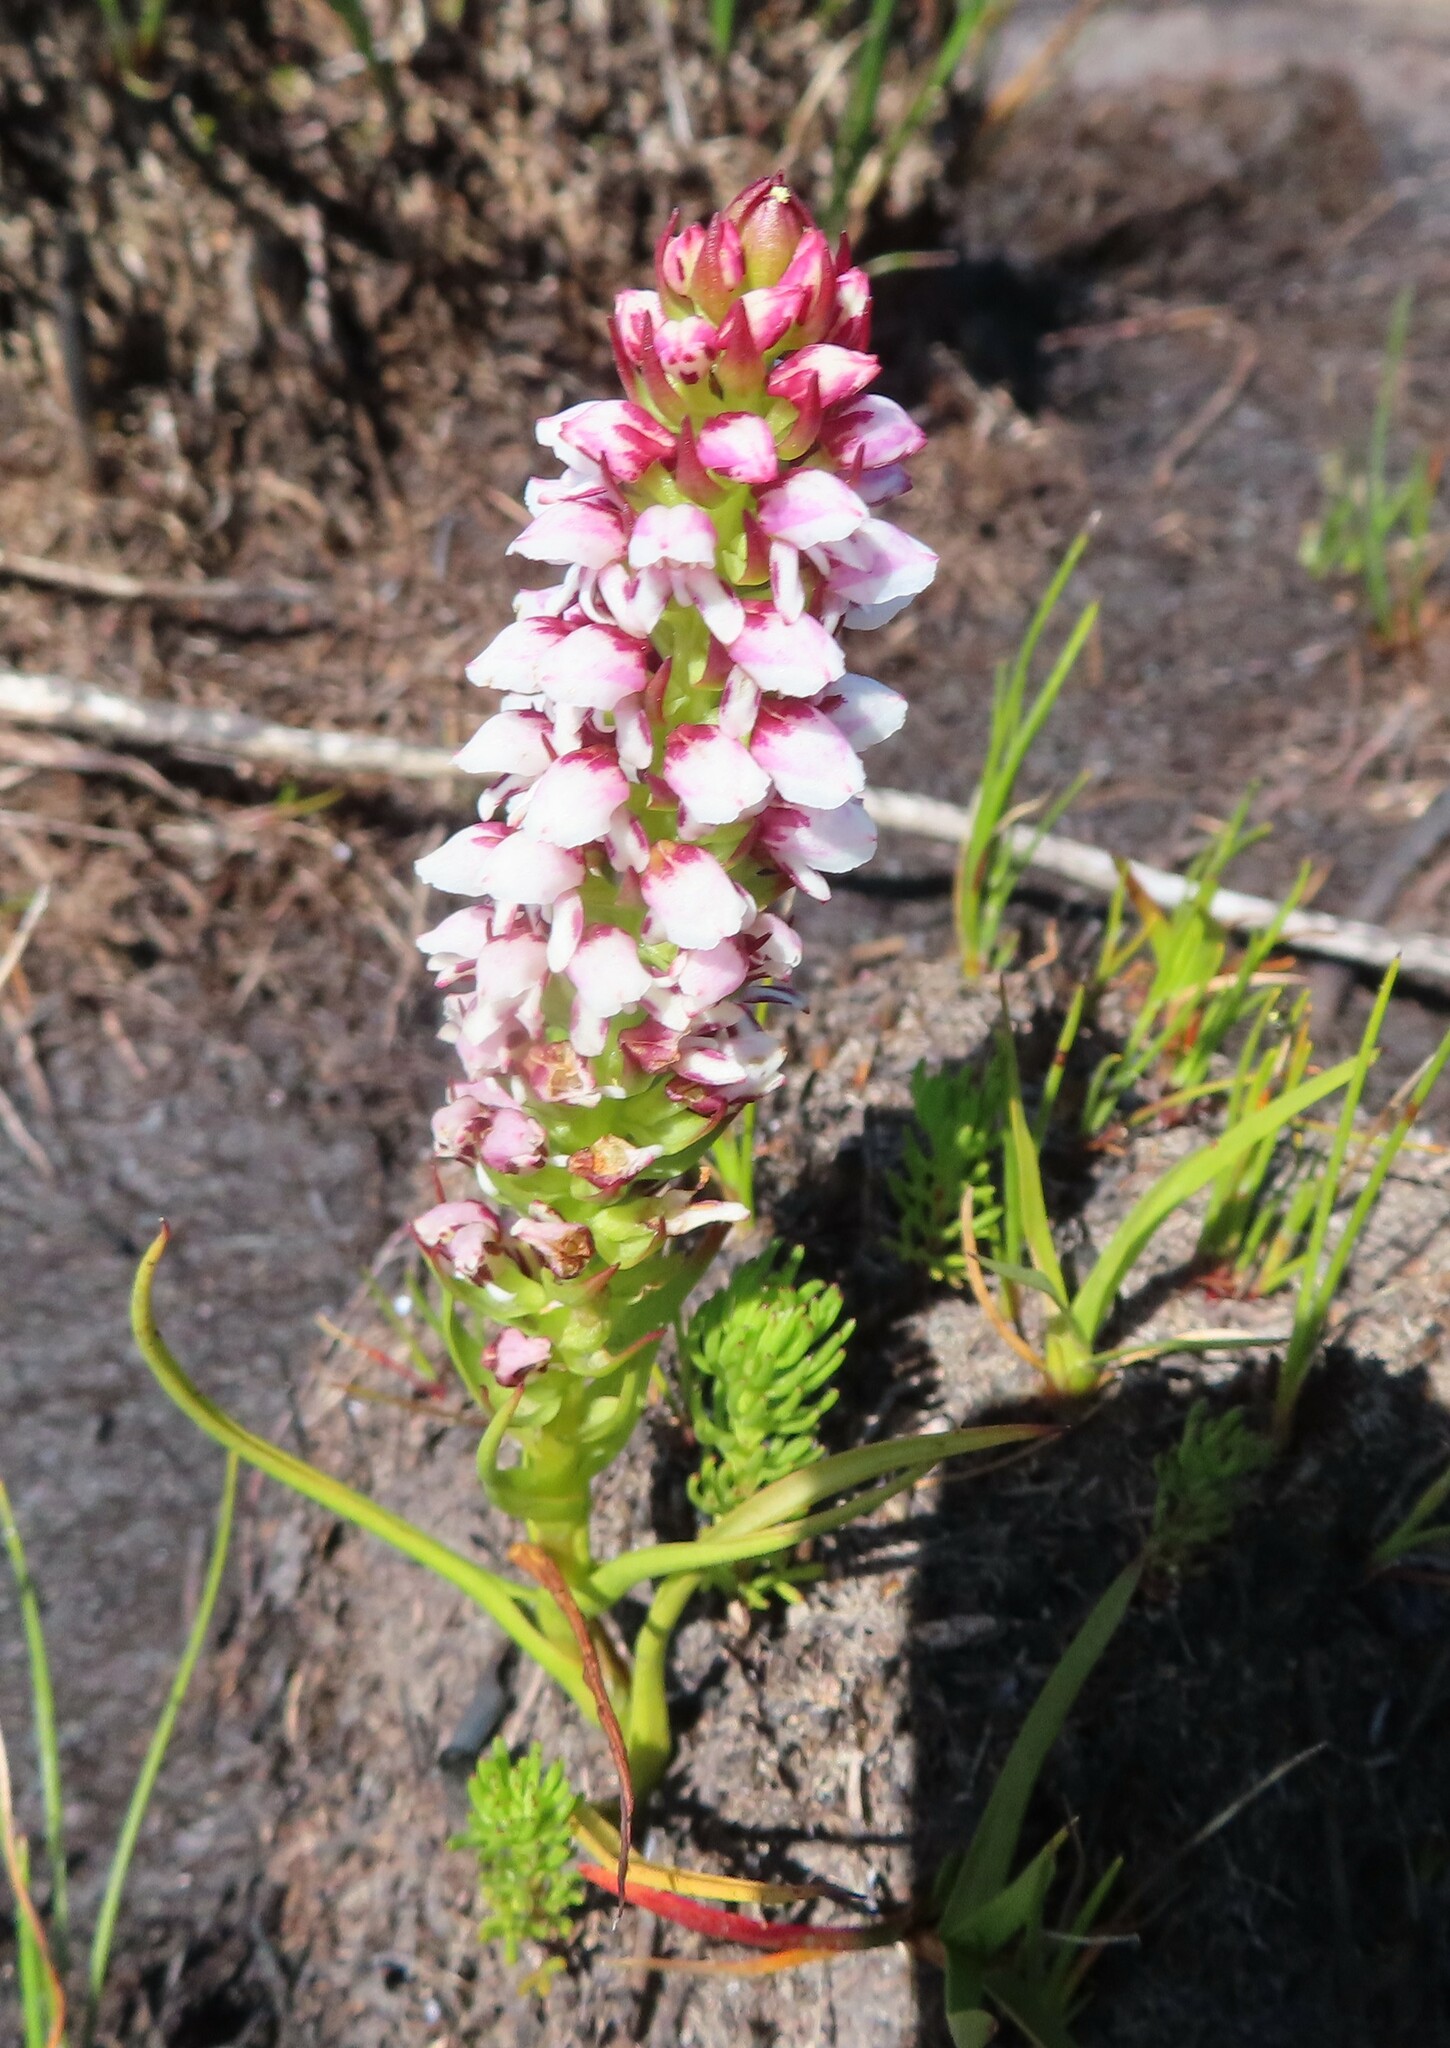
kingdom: Plantae
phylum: Tracheophyta
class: Liliopsida
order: Asparagales
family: Orchidaceae
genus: Disa
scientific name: Disa obtusa
